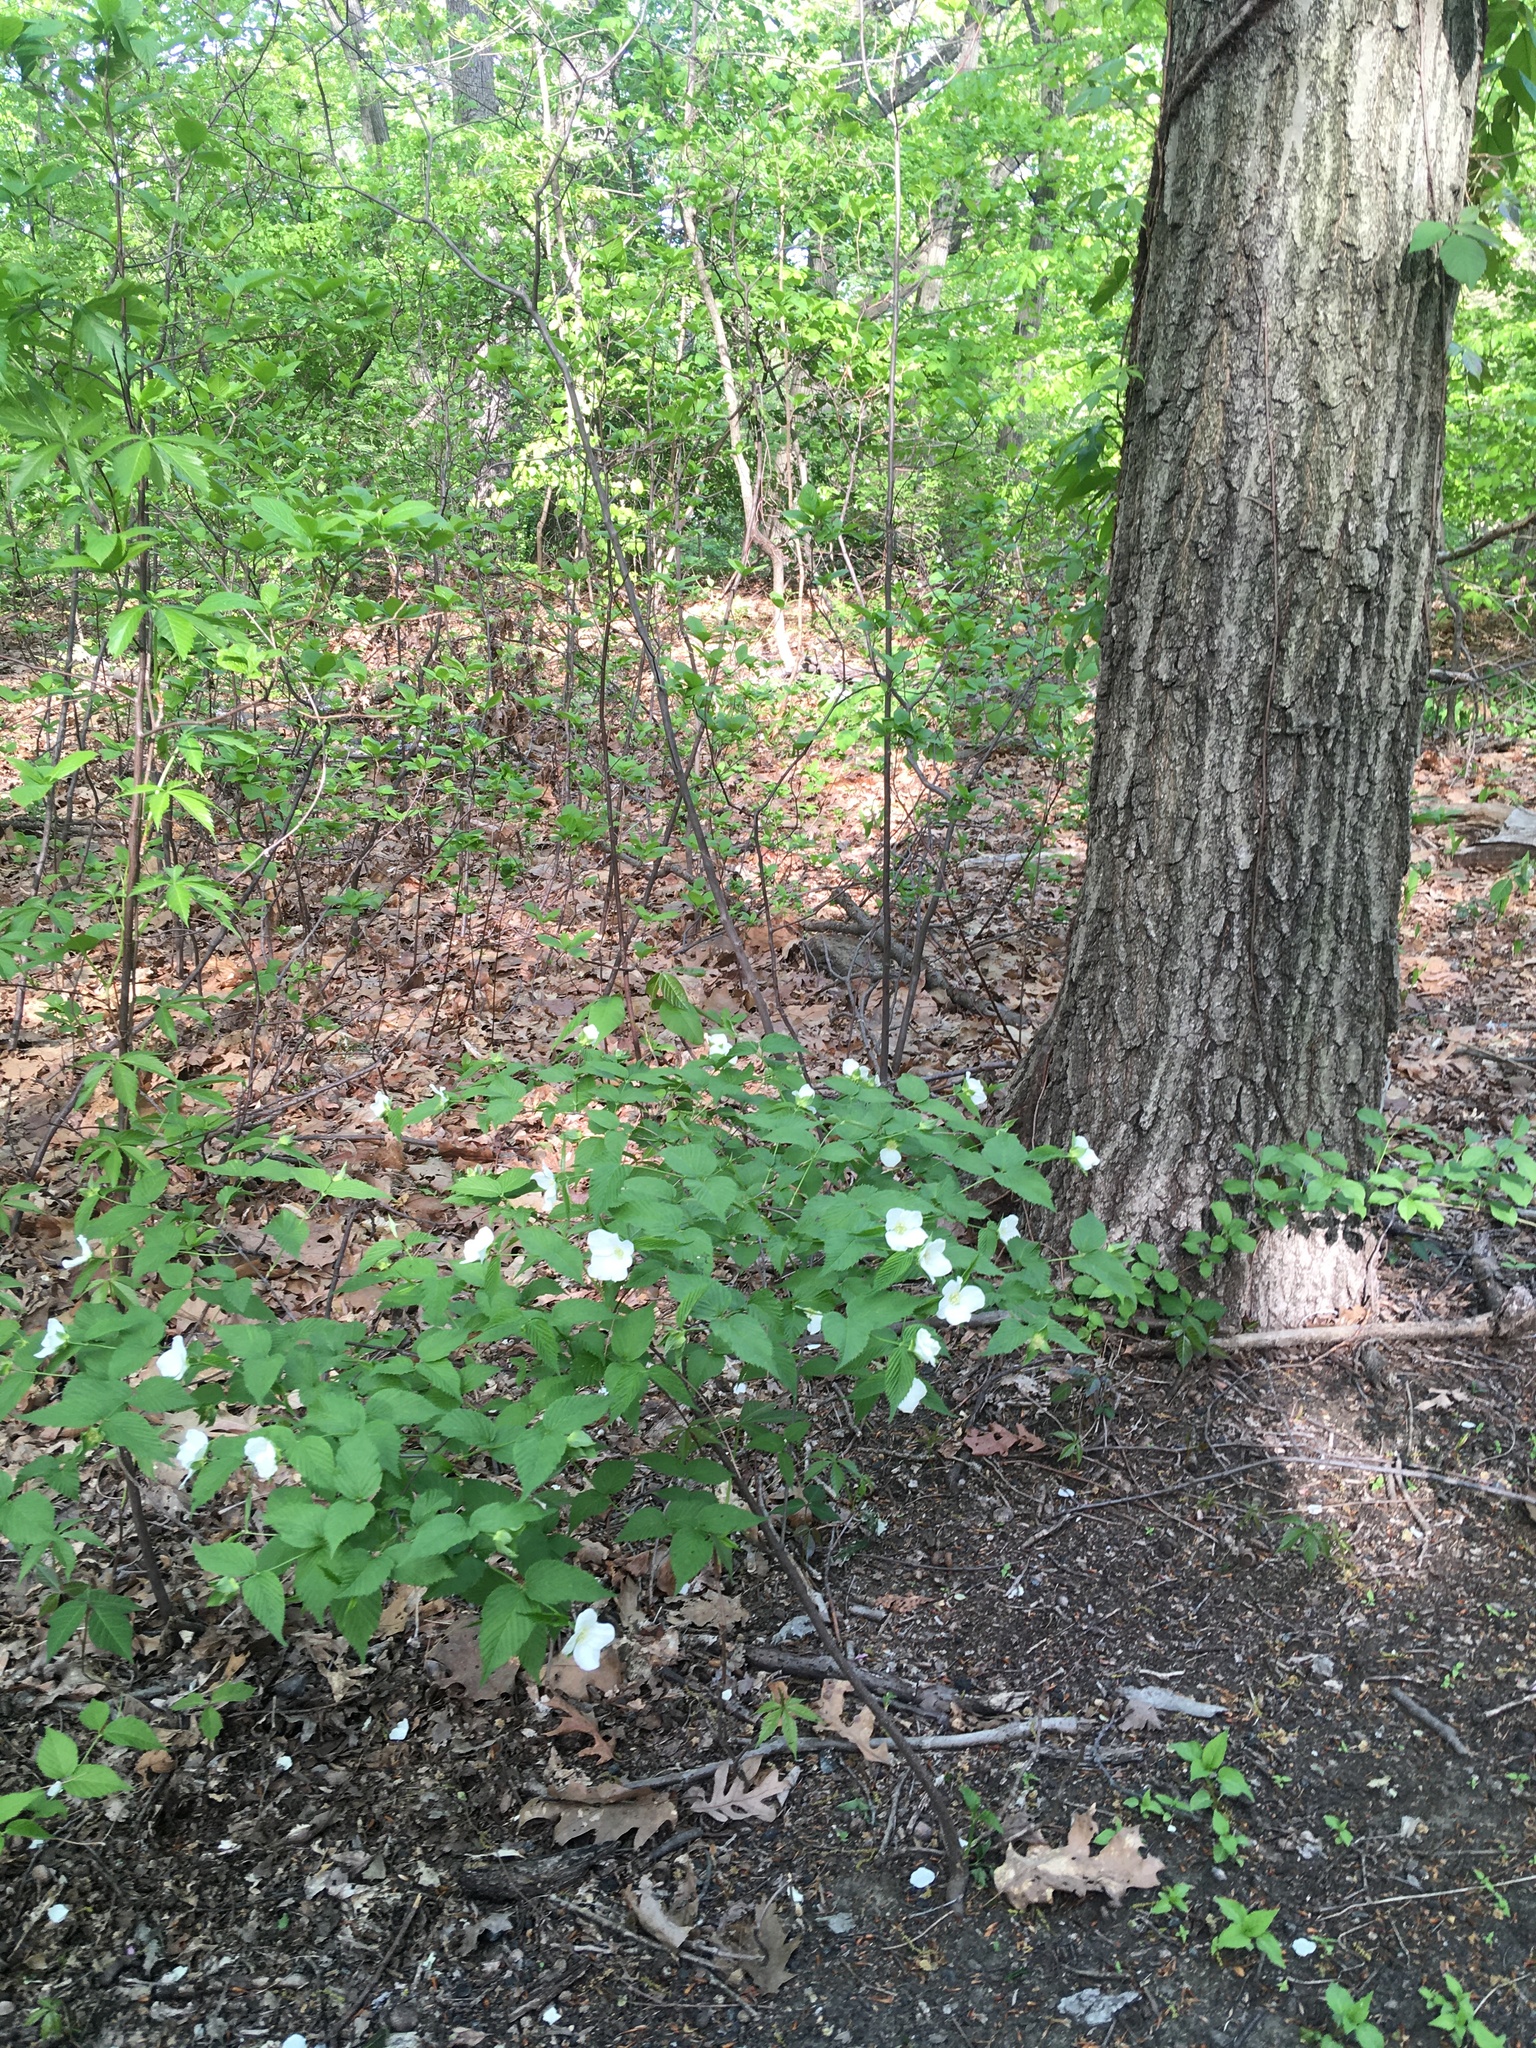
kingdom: Plantae
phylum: Tracheophyta
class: Magnoliopsida
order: Rosales
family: Rosaceae
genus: Rhodotypos
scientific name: Rhodotypos scandens
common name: Jetbead
